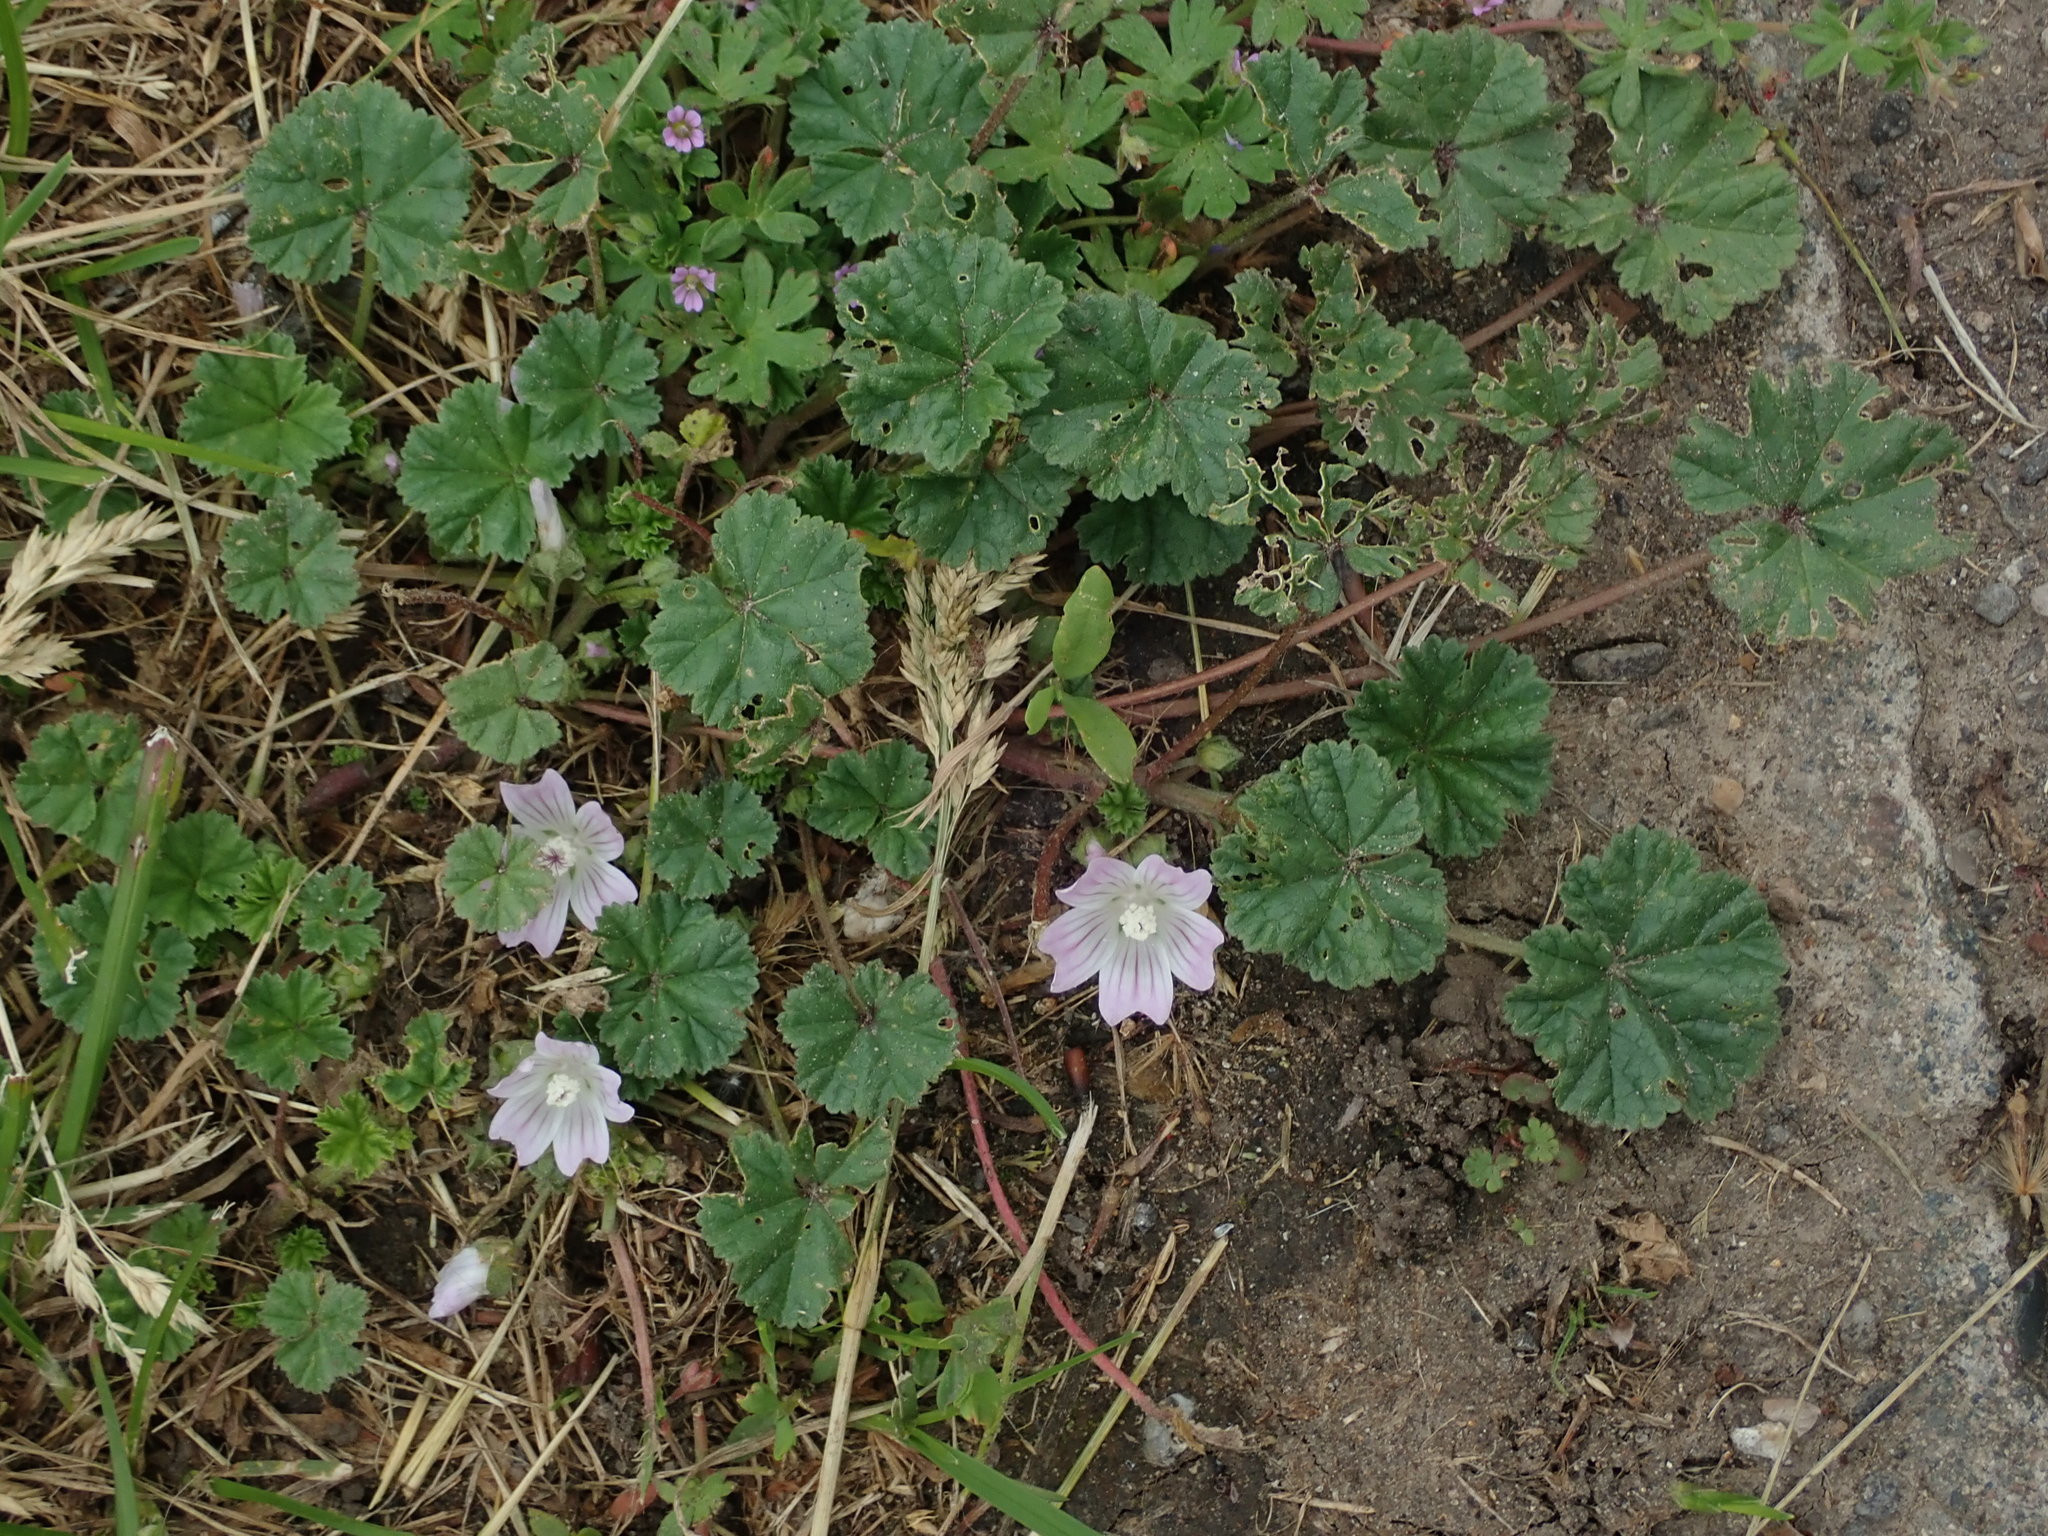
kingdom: Plantae
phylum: Tracheophyta
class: Magnoliopsida
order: Malvales
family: Malvaceae
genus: Malva
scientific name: Malva neglecta
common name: Common mallow
